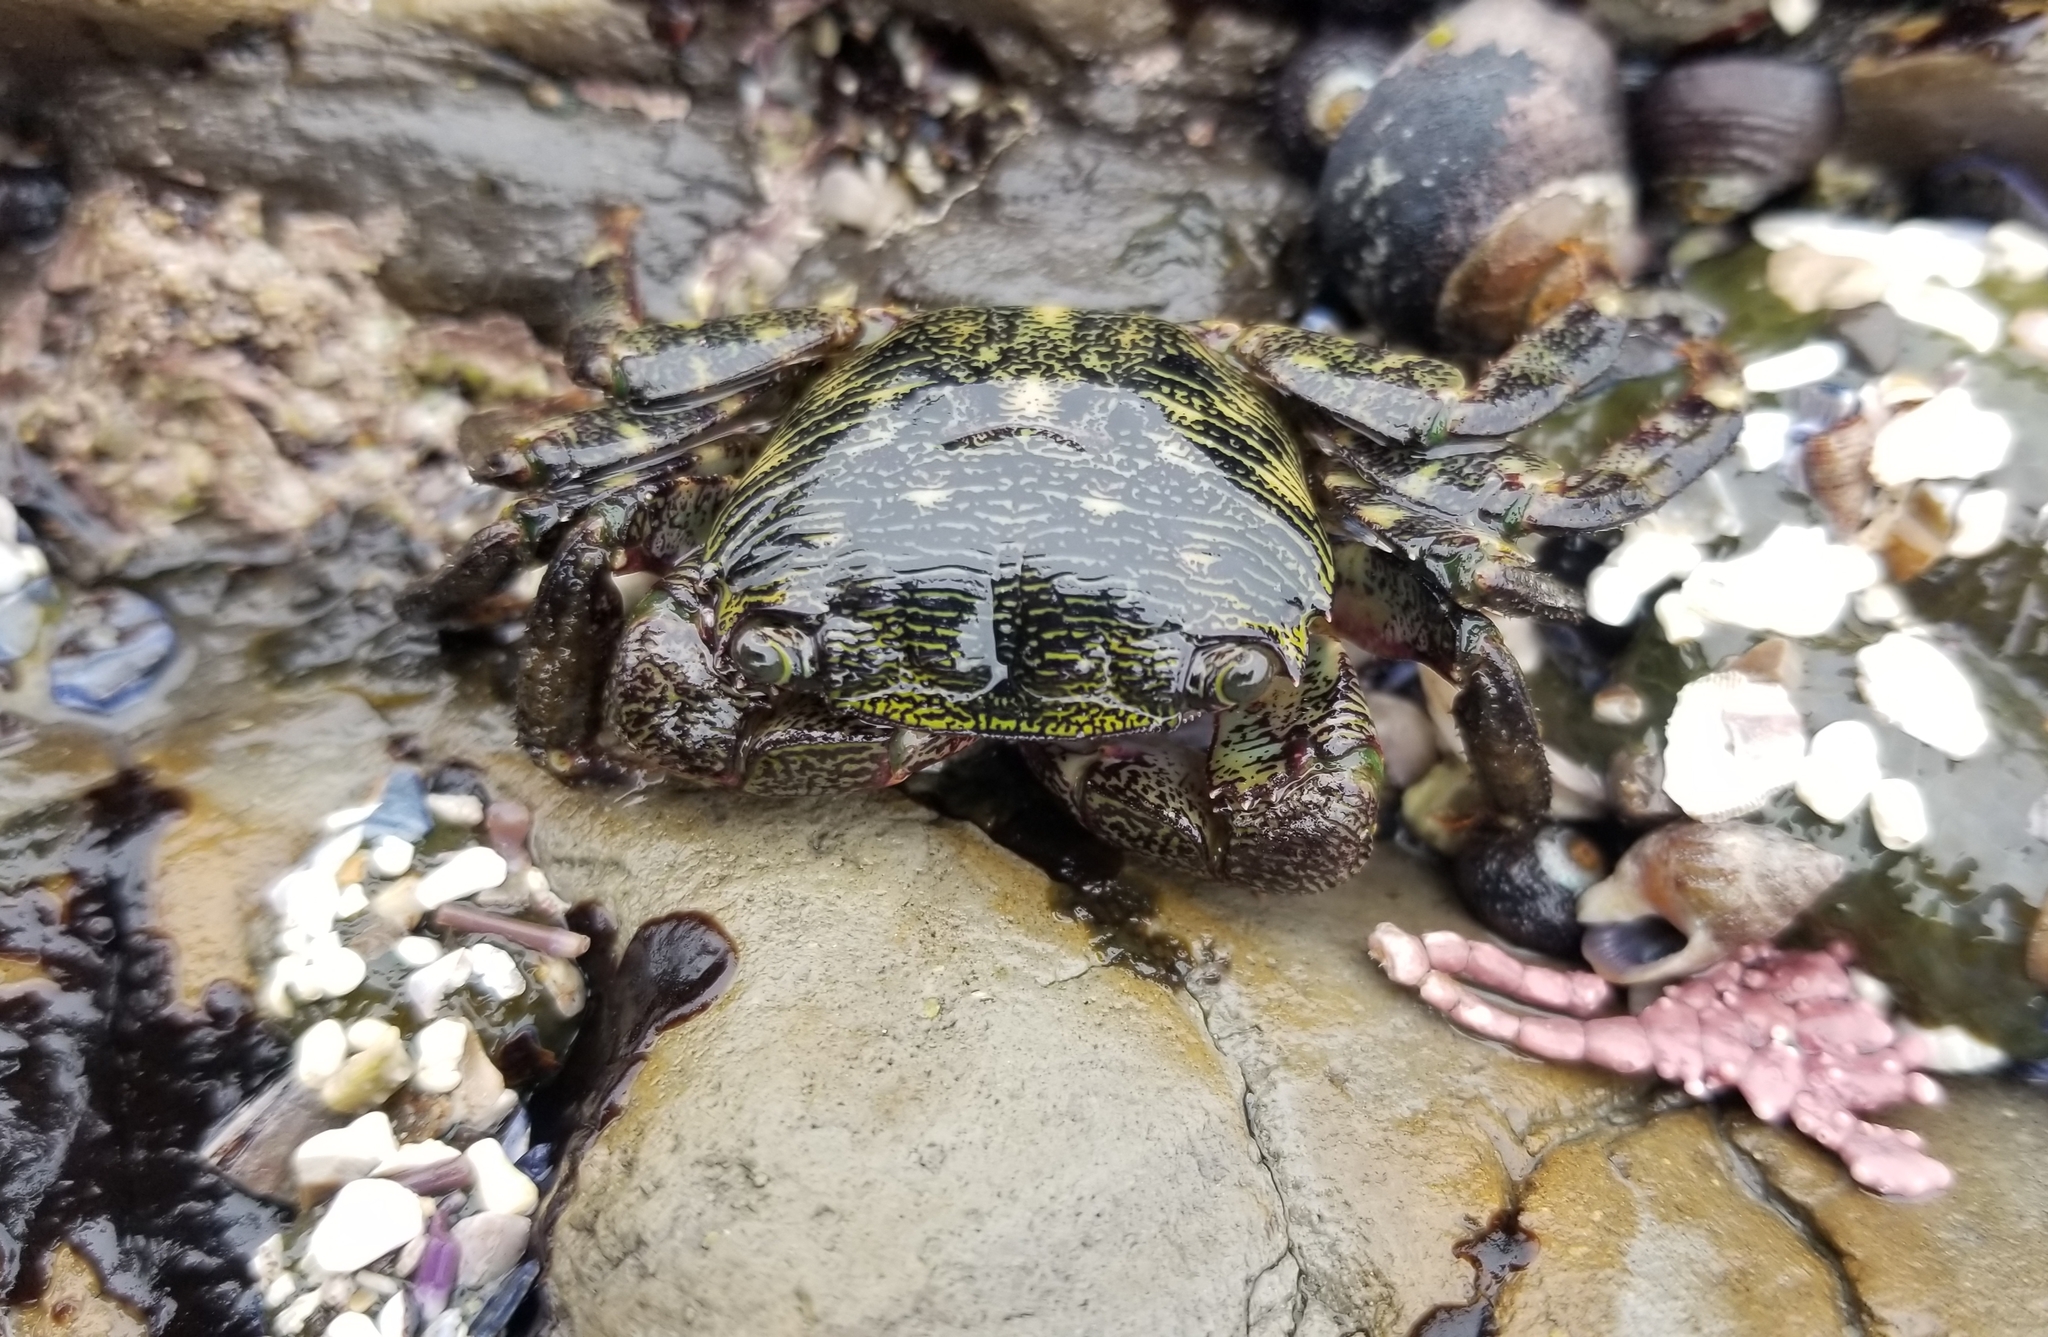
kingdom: Animalia
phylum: Arthropoda
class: Malacostraca
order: Decapoda
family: Grapsidae
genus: Pachygrapsus
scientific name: Pachygrapsus crassipes
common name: Striped shore crab
